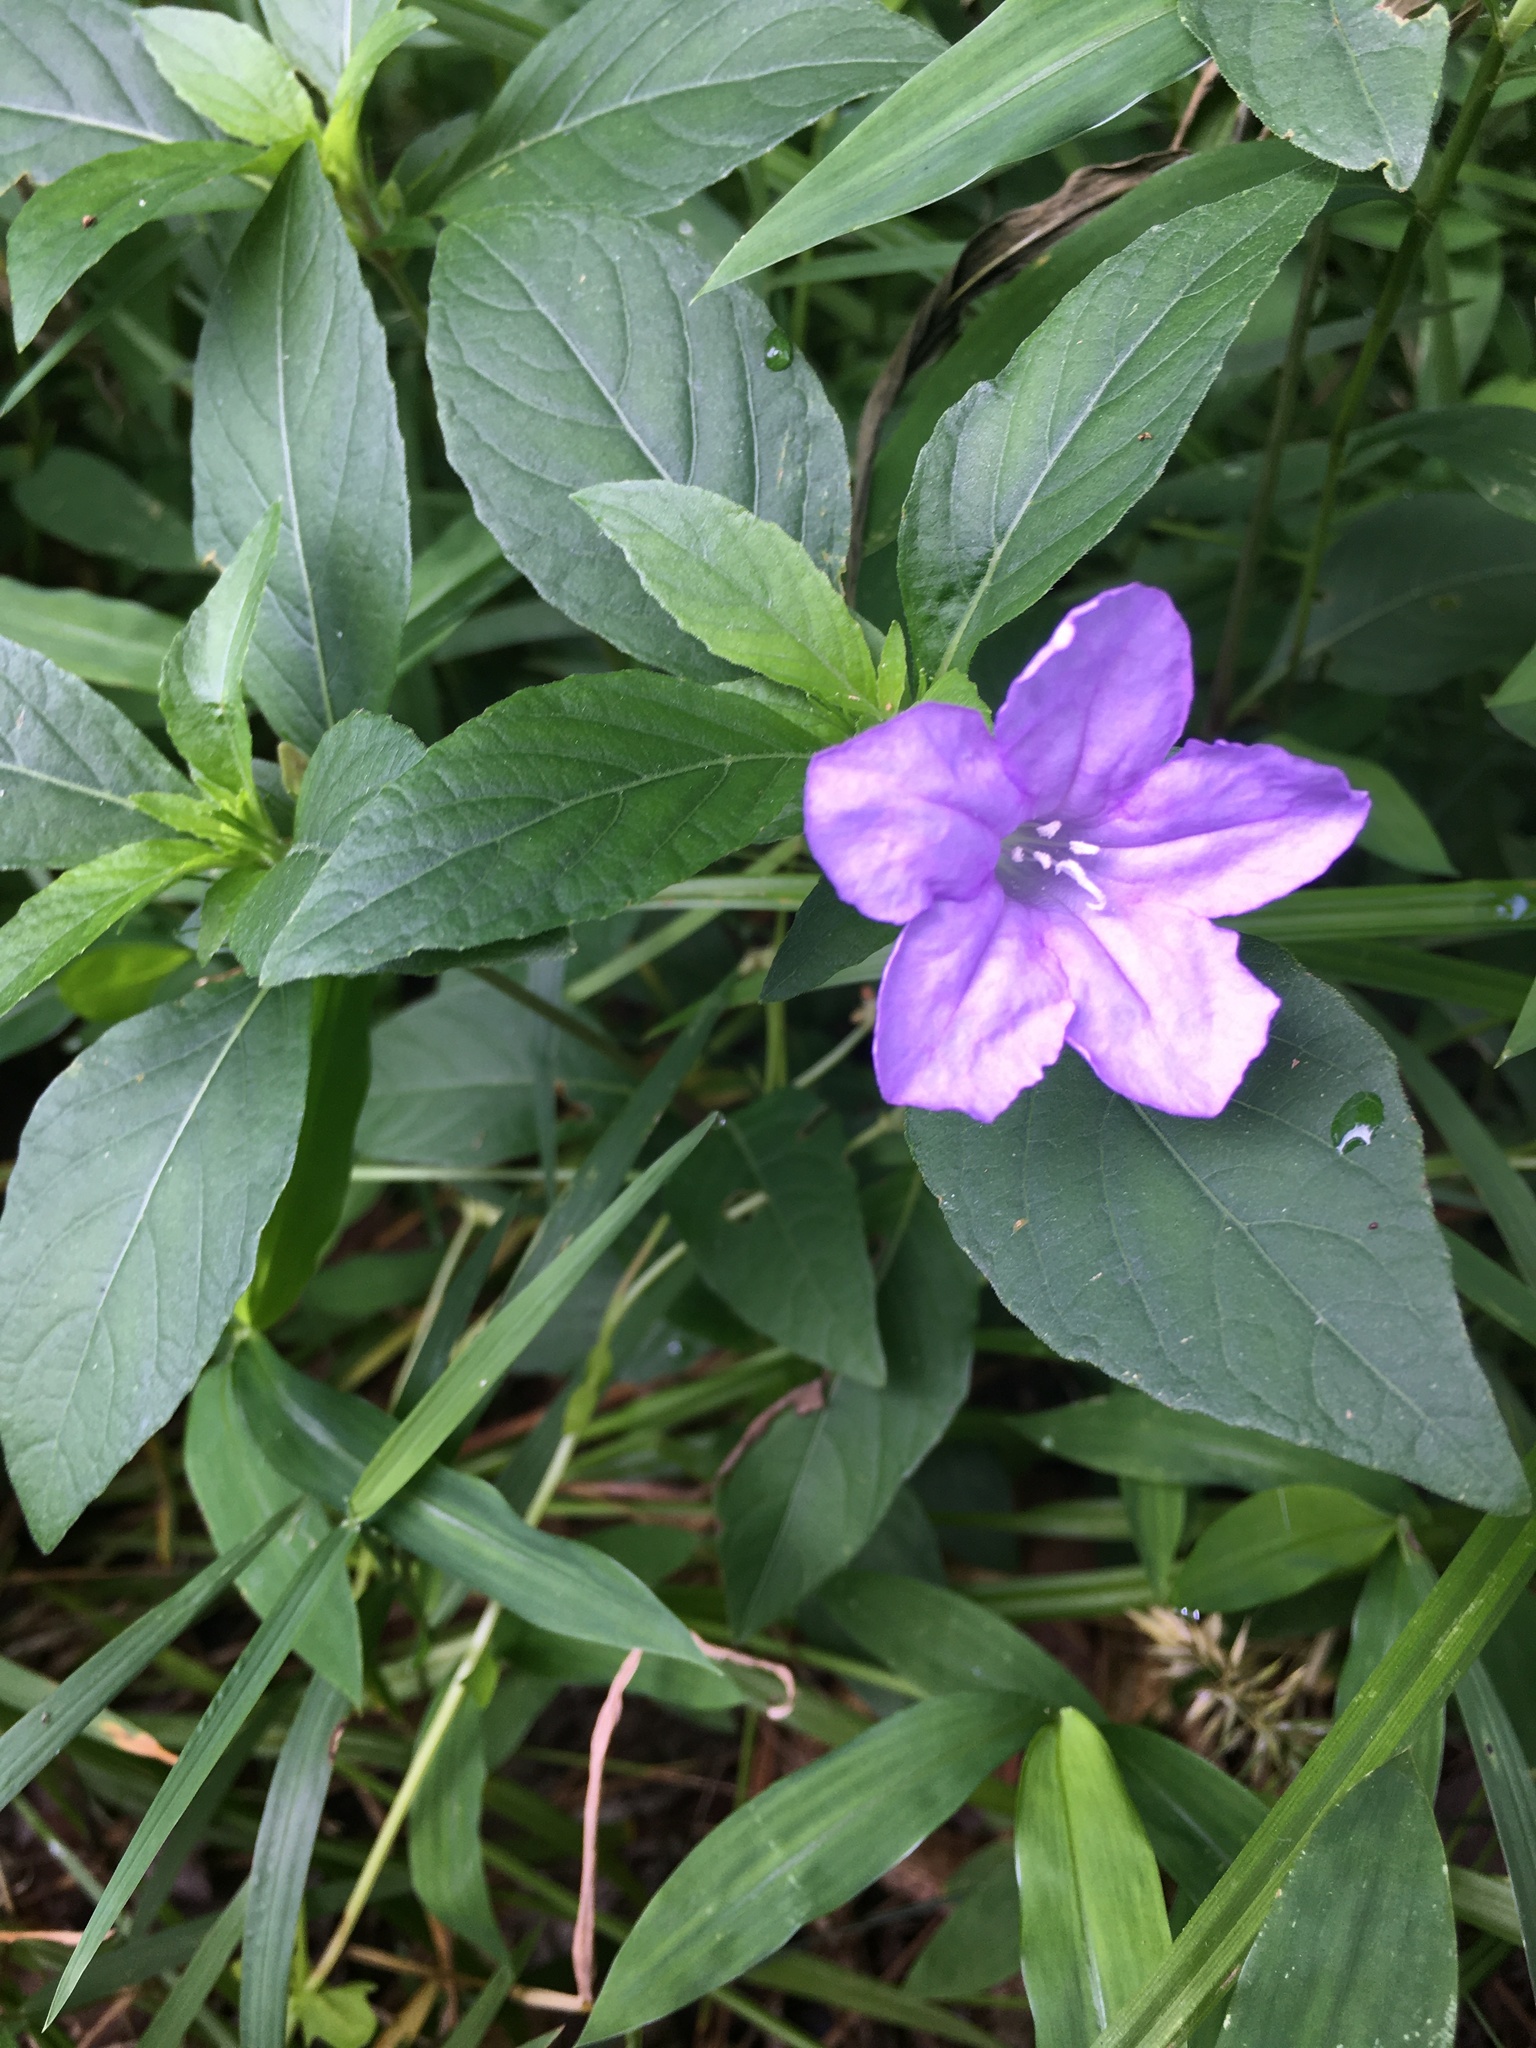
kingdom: Plantae
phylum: Tracheophyta
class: Magnoliopsida
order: Lamiales
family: Acanthaceae
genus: Ruellia
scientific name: Ruellia caroliniensis
